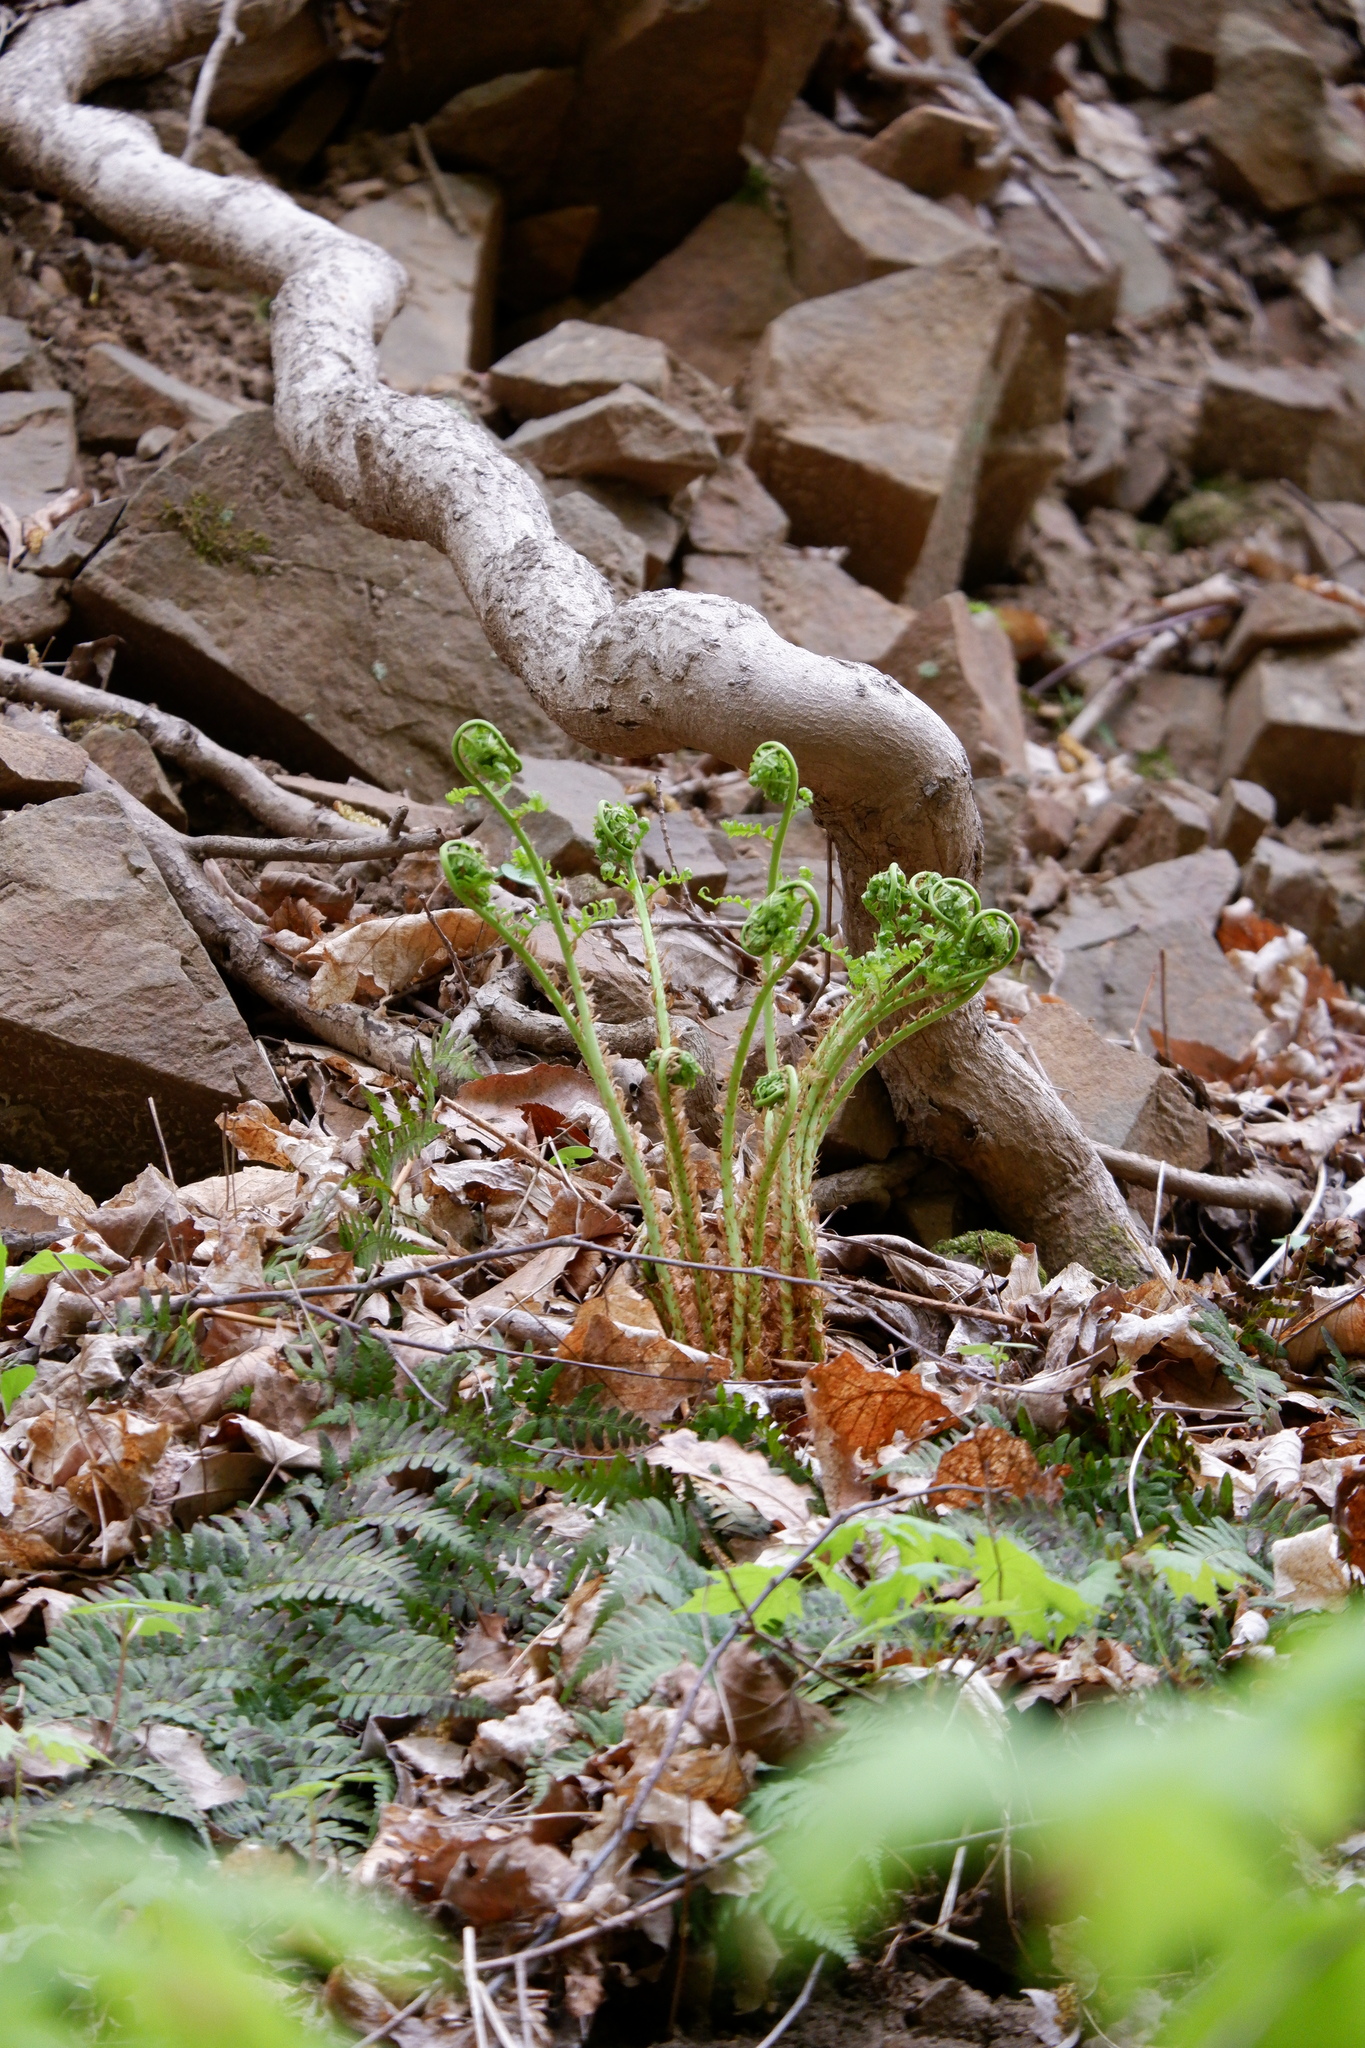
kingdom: Plantae
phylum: Tracheophyta
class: Polypodiopsida
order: Polypodiales
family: Dryopteridaceae
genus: Dryopteris
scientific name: Dryopteris marginalis
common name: Marginal wood fern
